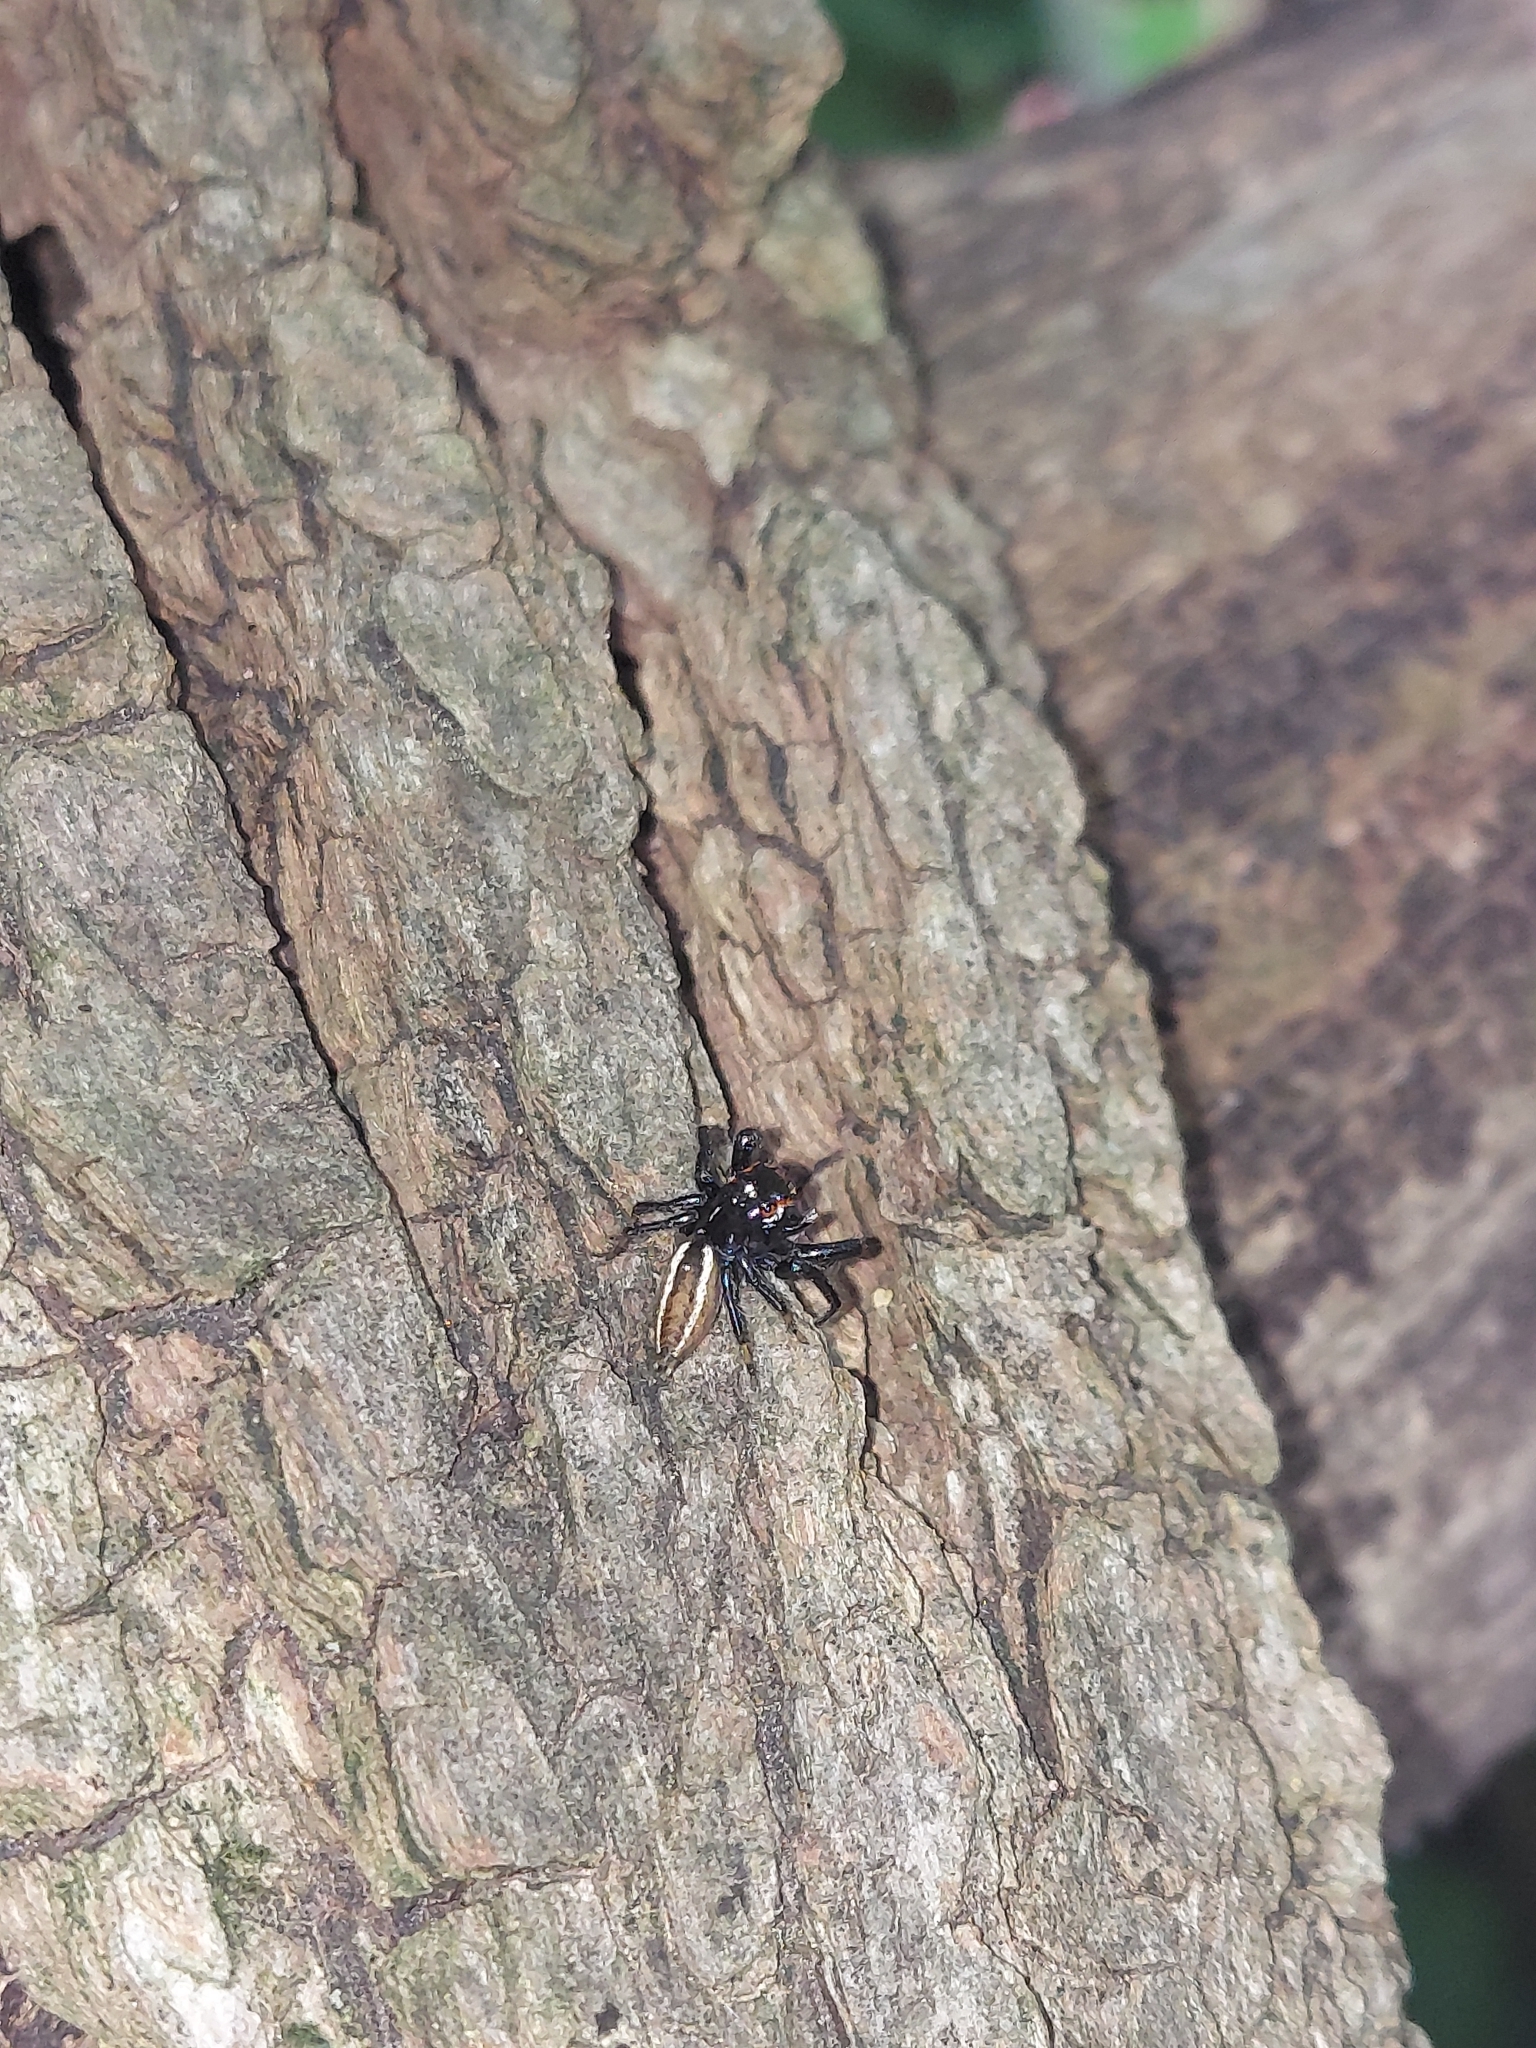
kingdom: Animalia
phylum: Arthropoda
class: Arachnida
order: Araneae
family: Salticidae
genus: Colonus
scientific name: Colonus sylvanus
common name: Jumping spiders
